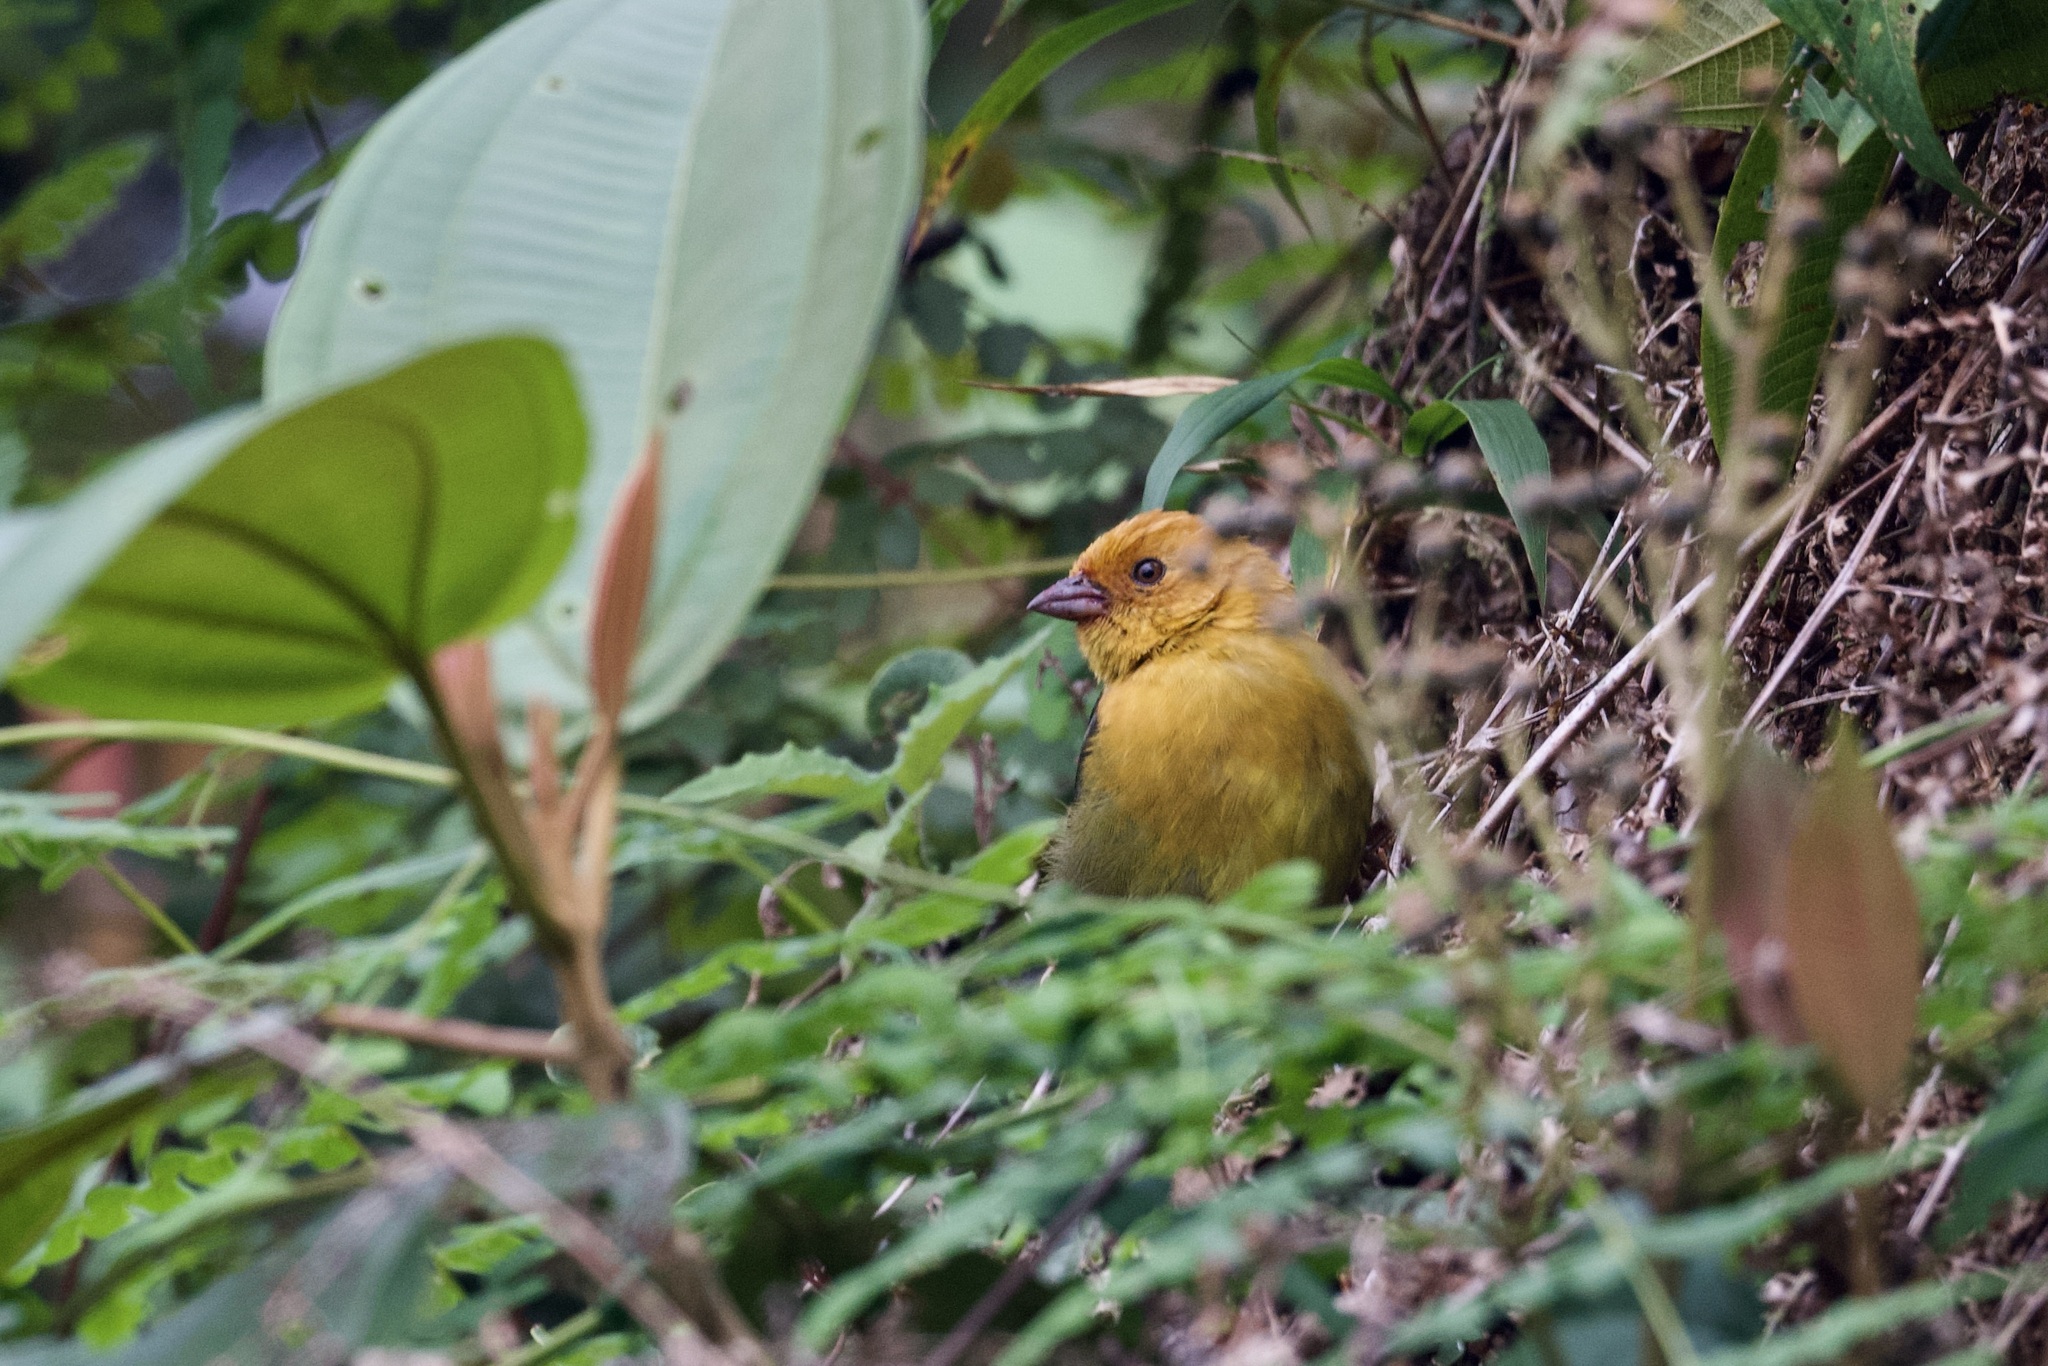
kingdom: Animalia
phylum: Chordata
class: Aves
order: Passeriformes
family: Passerellidae
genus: Atlapetes
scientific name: Atlapetes semirufus
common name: Ochre-breasted brushfinch
